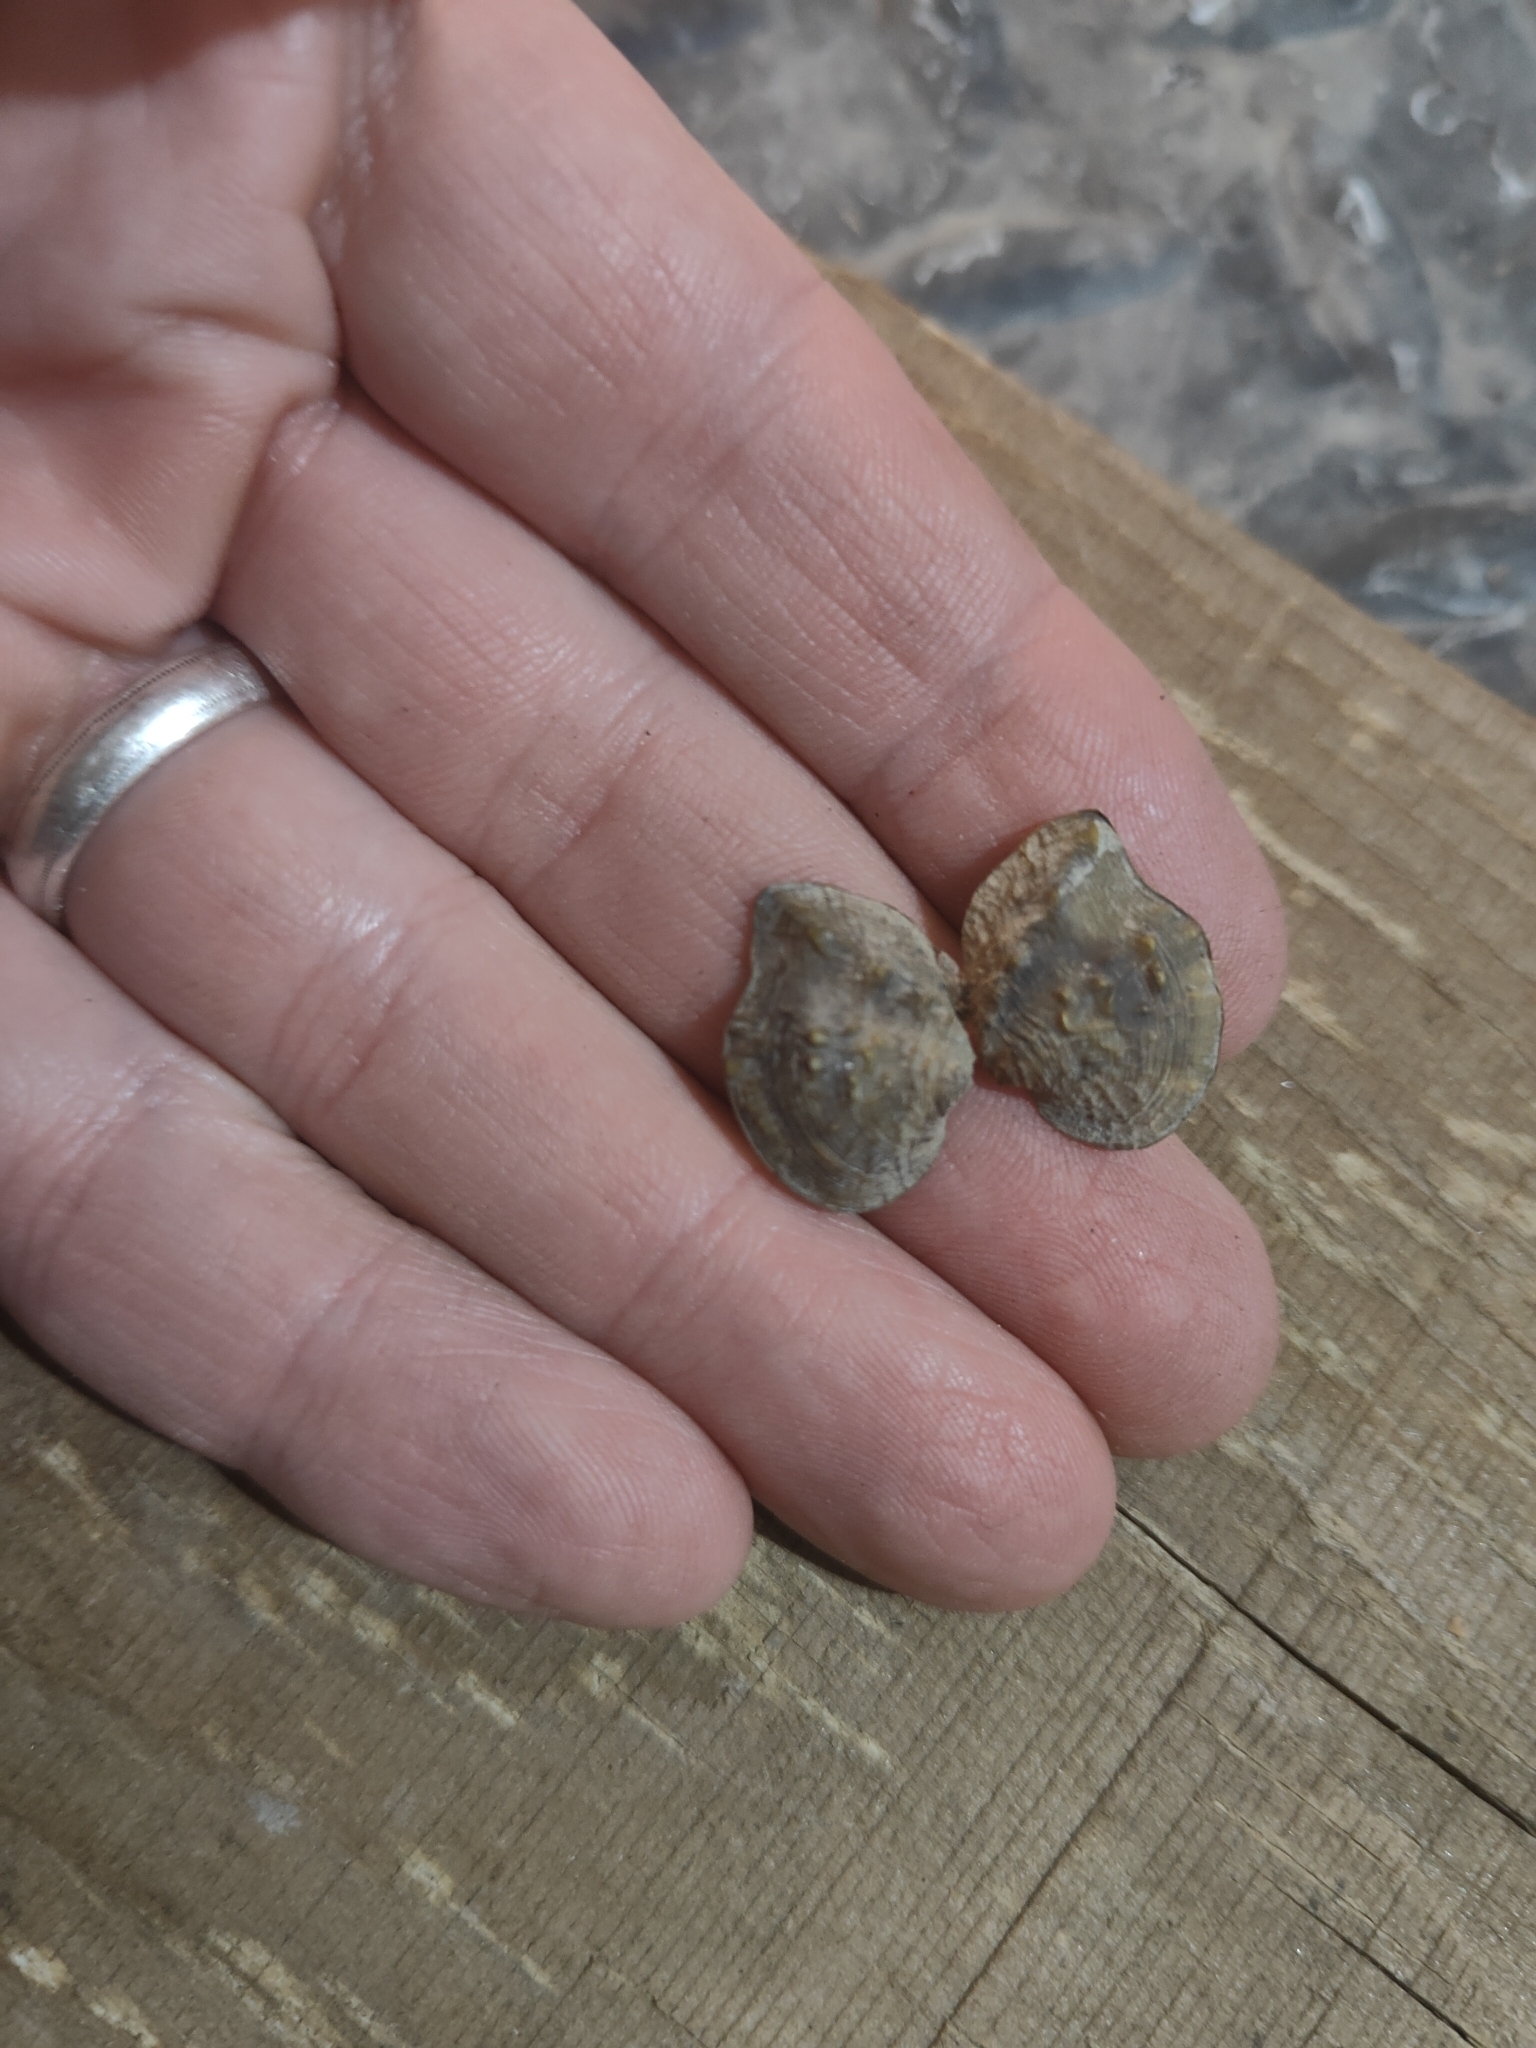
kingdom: Animalia
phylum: Mollusca
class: Bivalvia
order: Unionida
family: Unionidae
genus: Quadrula
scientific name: Quadrula quadrula
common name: Mapleleaf
